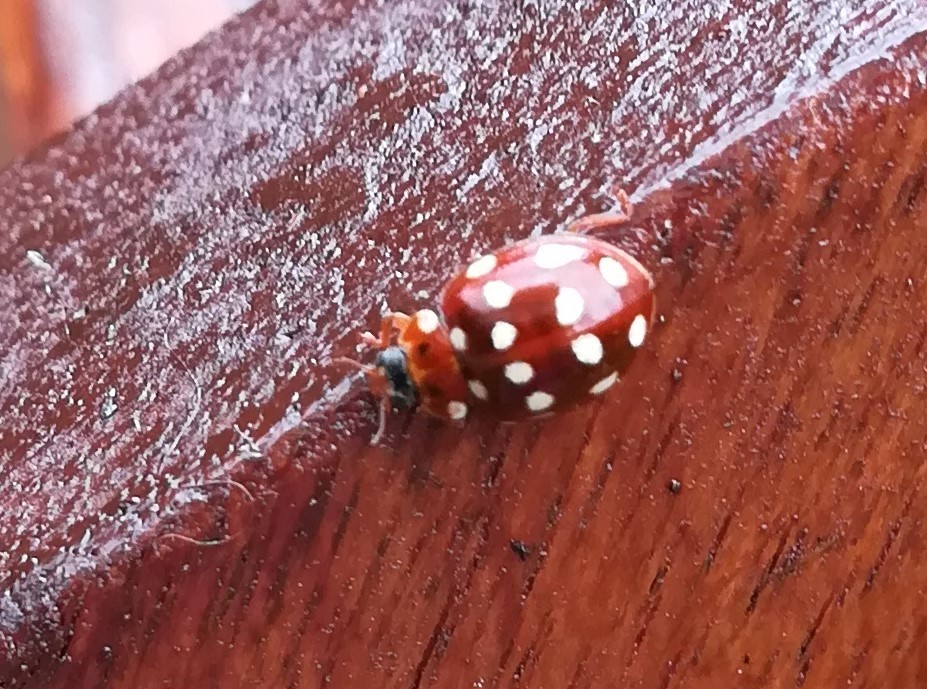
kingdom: Animalia
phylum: Arthropoda
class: Insecta
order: Coleoptera
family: Coccinellidae
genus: Calvia
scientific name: Calvia quatuordecimguttata
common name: Cream-spot ladybird
